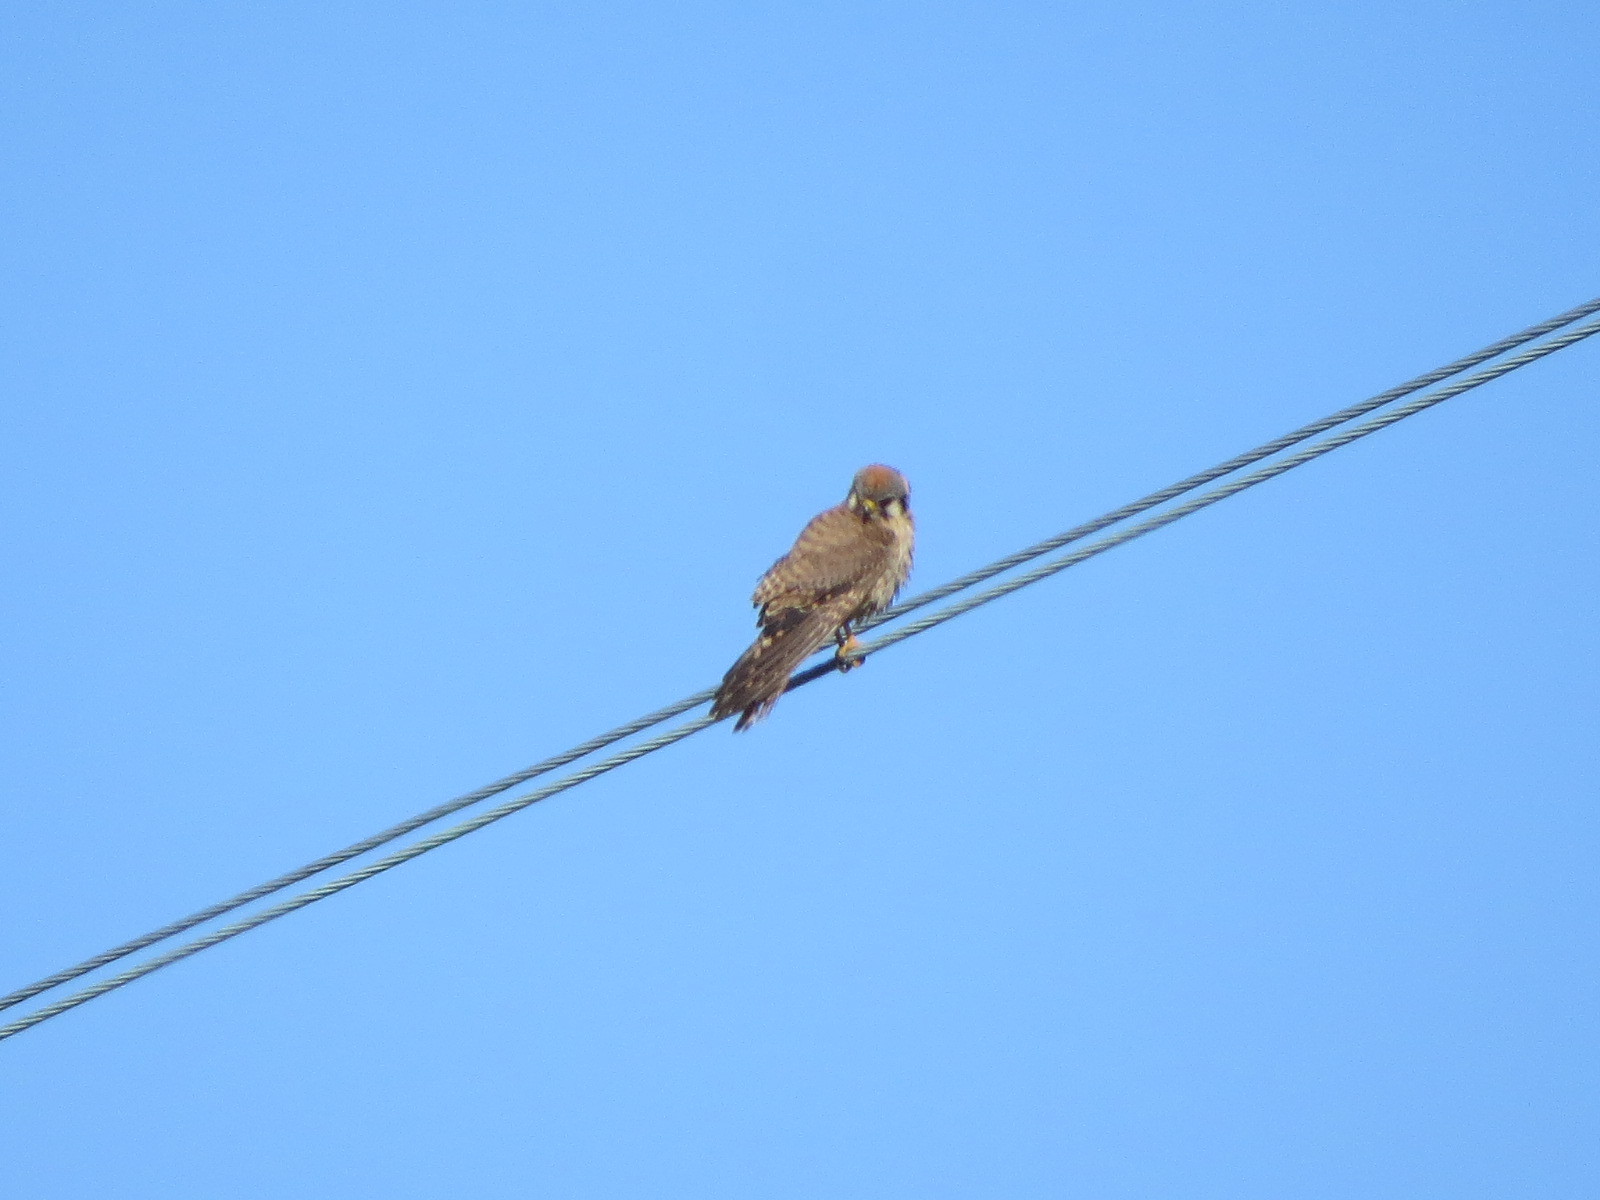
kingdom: Animalia
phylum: Chordata
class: Aves
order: Falconiformes
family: Falconidae
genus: Falco
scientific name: Falco sparverius
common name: American kestrel
